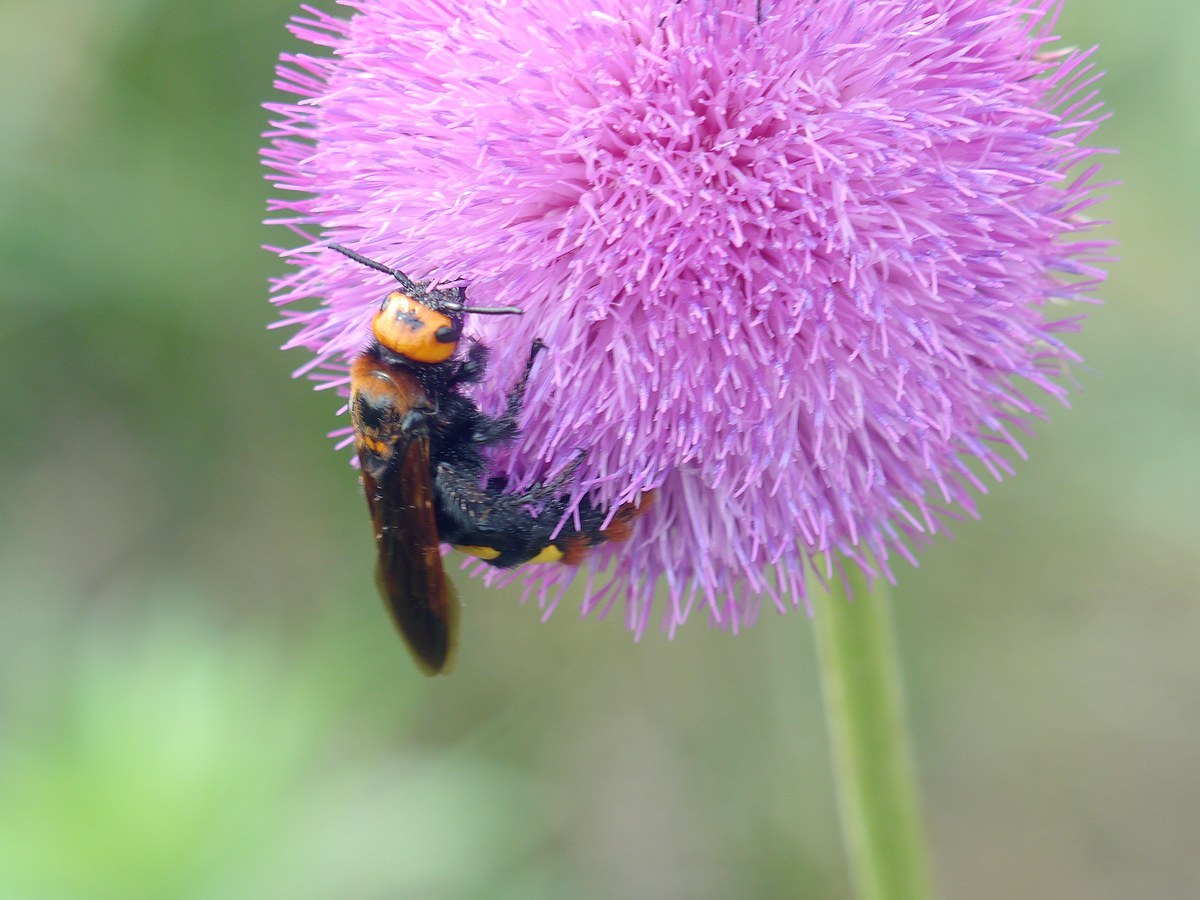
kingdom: Animalia
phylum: Arthropoda
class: Insecta
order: Hymenoptera
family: Scoliidae
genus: Megascolia
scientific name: Megascolia maculata
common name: Mammoth wasp
